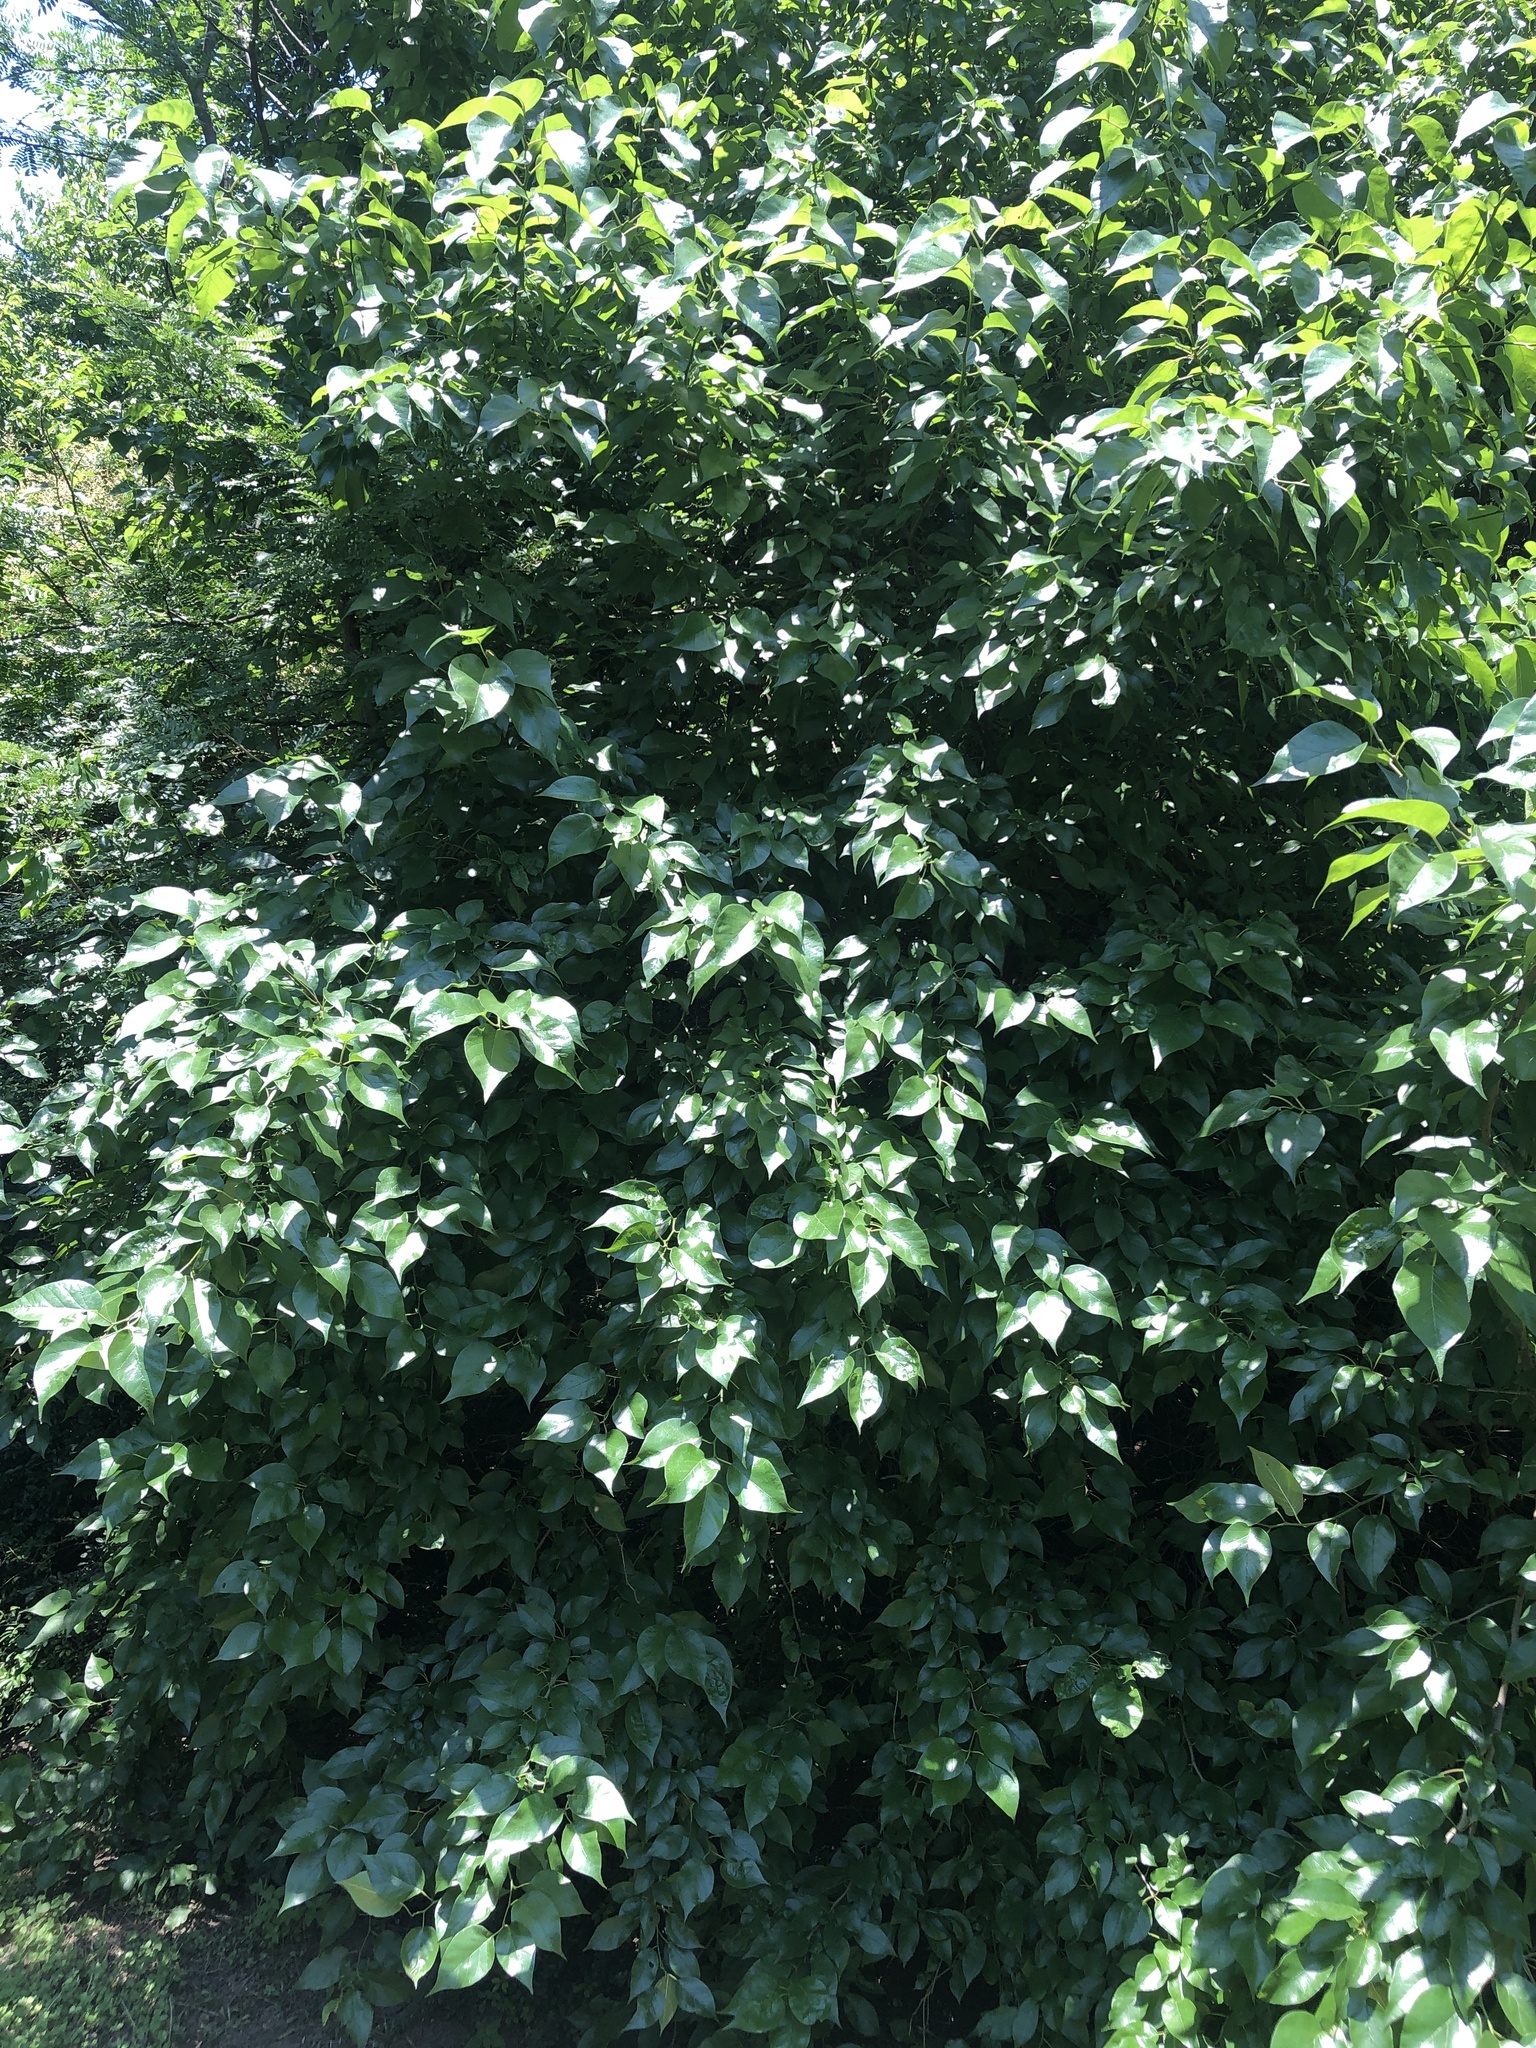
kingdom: Plantae
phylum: Tracheophyta
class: Magnoliopsida
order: Rosales
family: Moraceae
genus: Maclura
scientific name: Maclura pomifera
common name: Osage-orange
